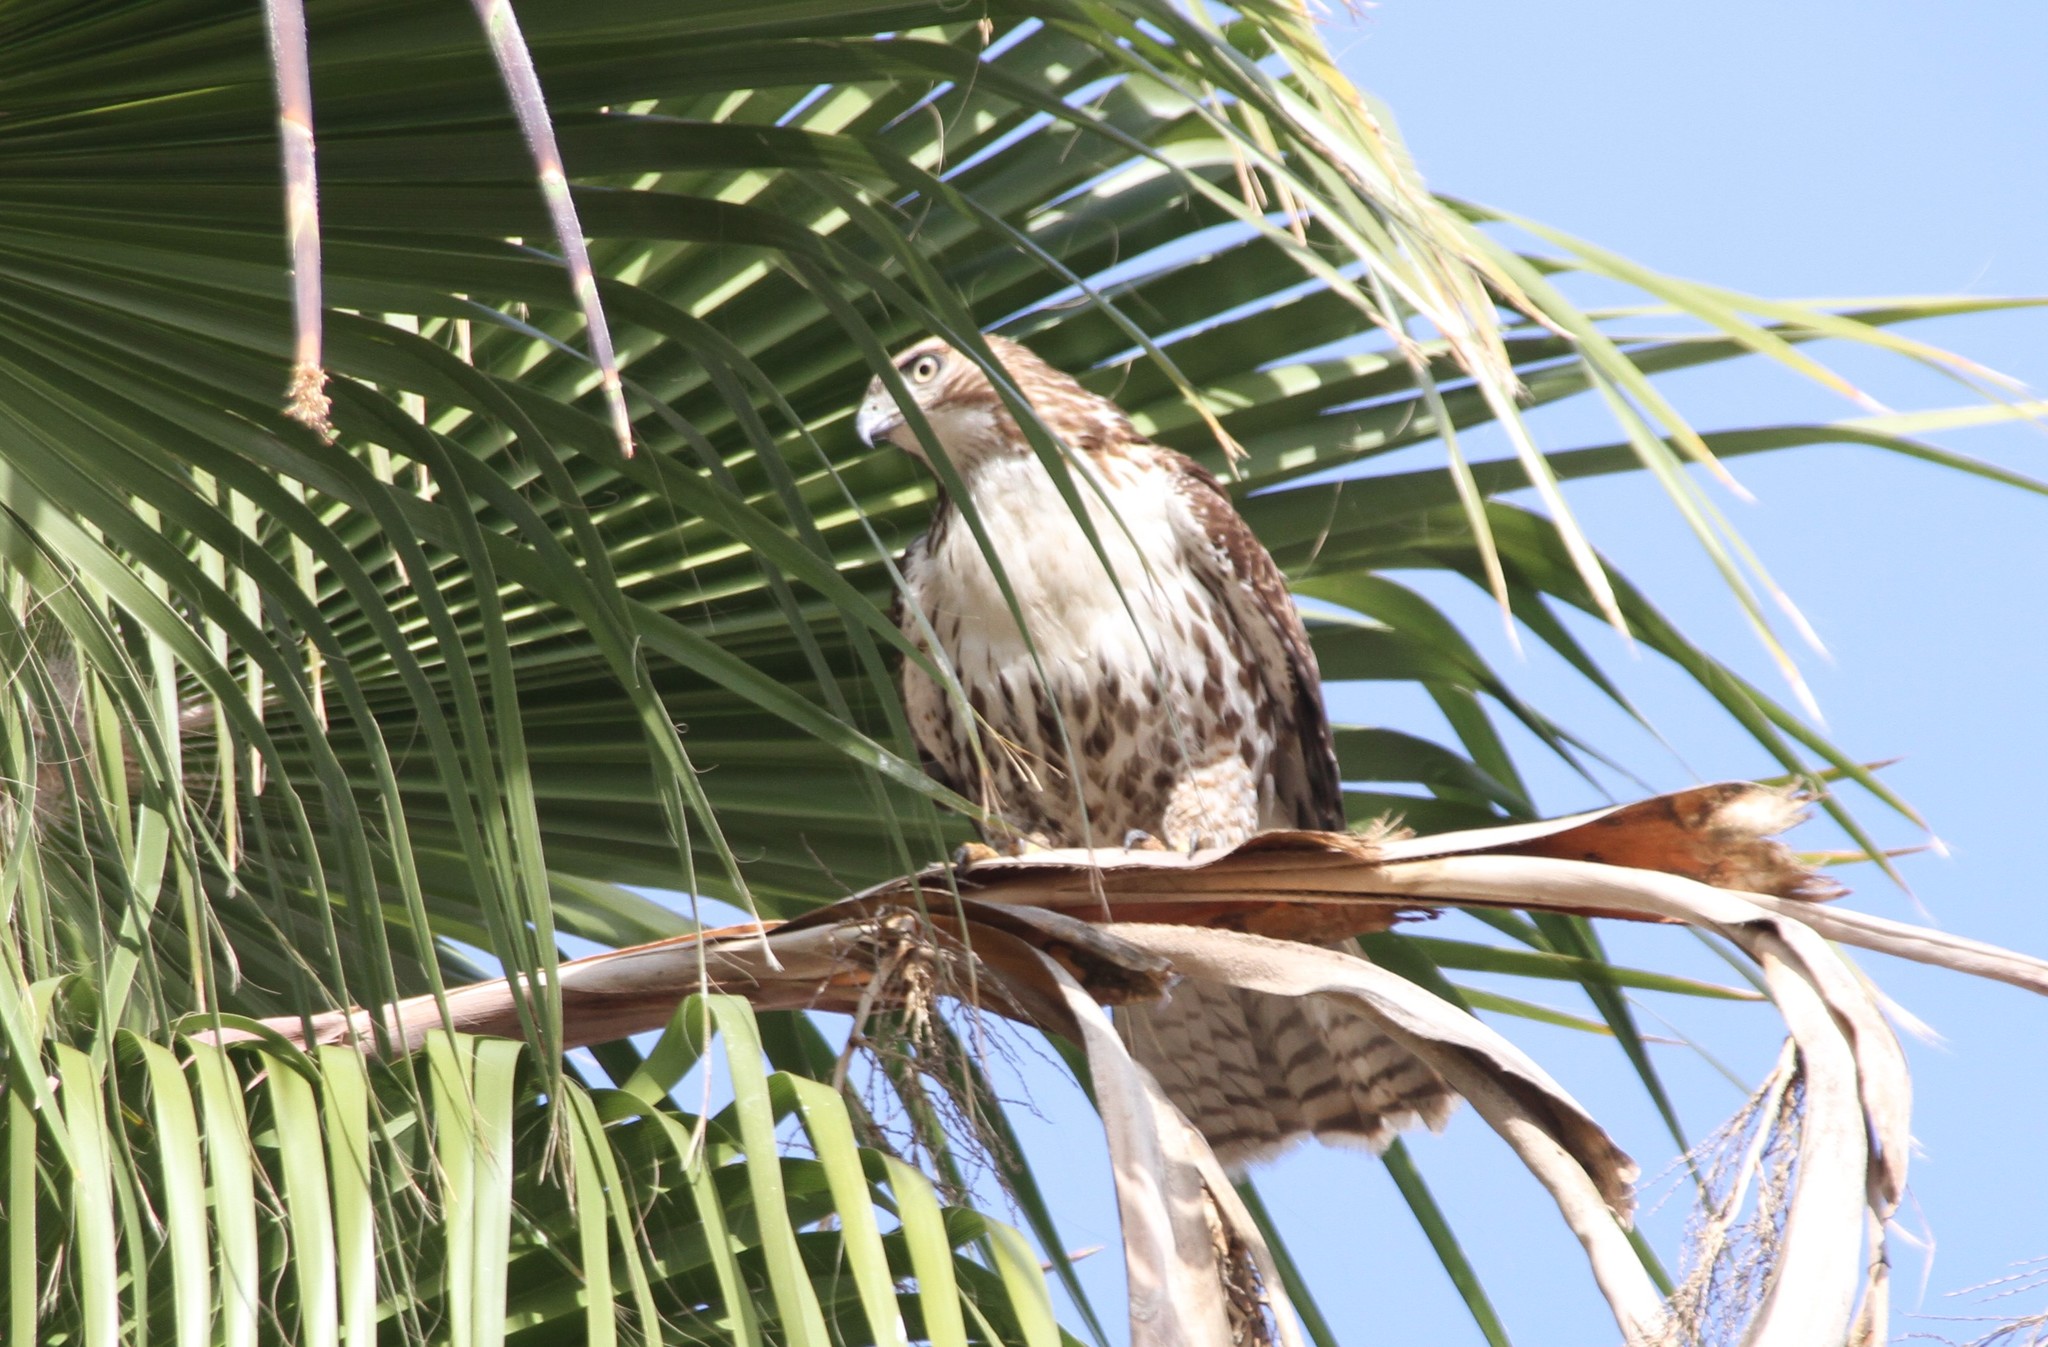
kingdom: Animalia
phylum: Chordata
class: Aves
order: Accipitriformes
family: Accipitridae
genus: Buteo
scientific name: Buteo jamaicensis
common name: Red-tailed hawk
